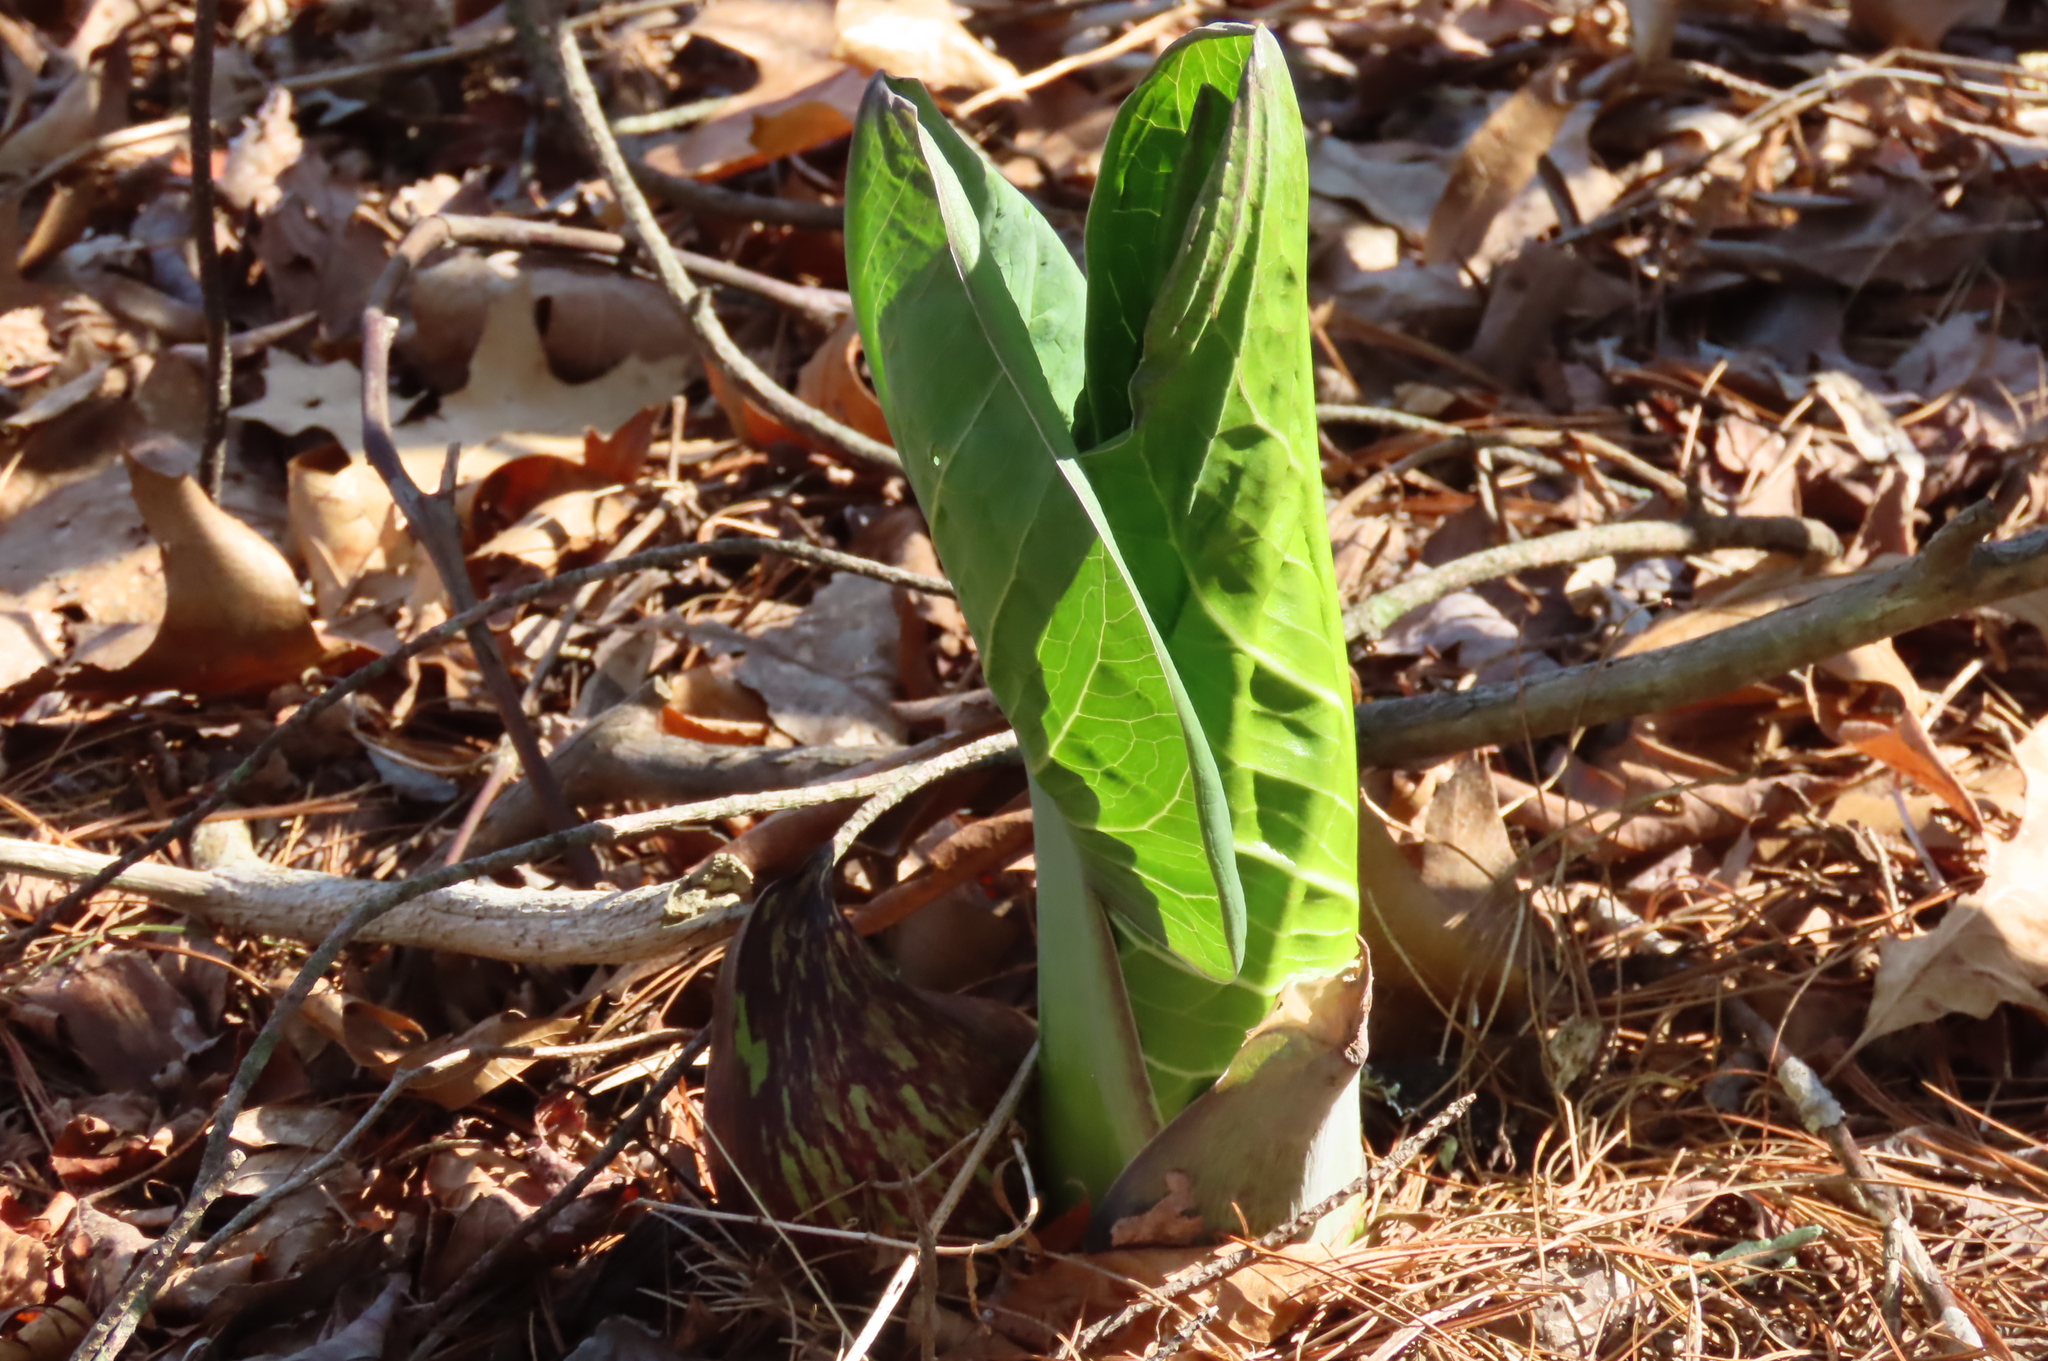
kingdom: Plantae
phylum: Tracheophyta
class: Liliopsida
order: Alismatales
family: Araceae
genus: Symplocarpus
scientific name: Symplocarpus foetidus
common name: Eastern skunk cabbage
